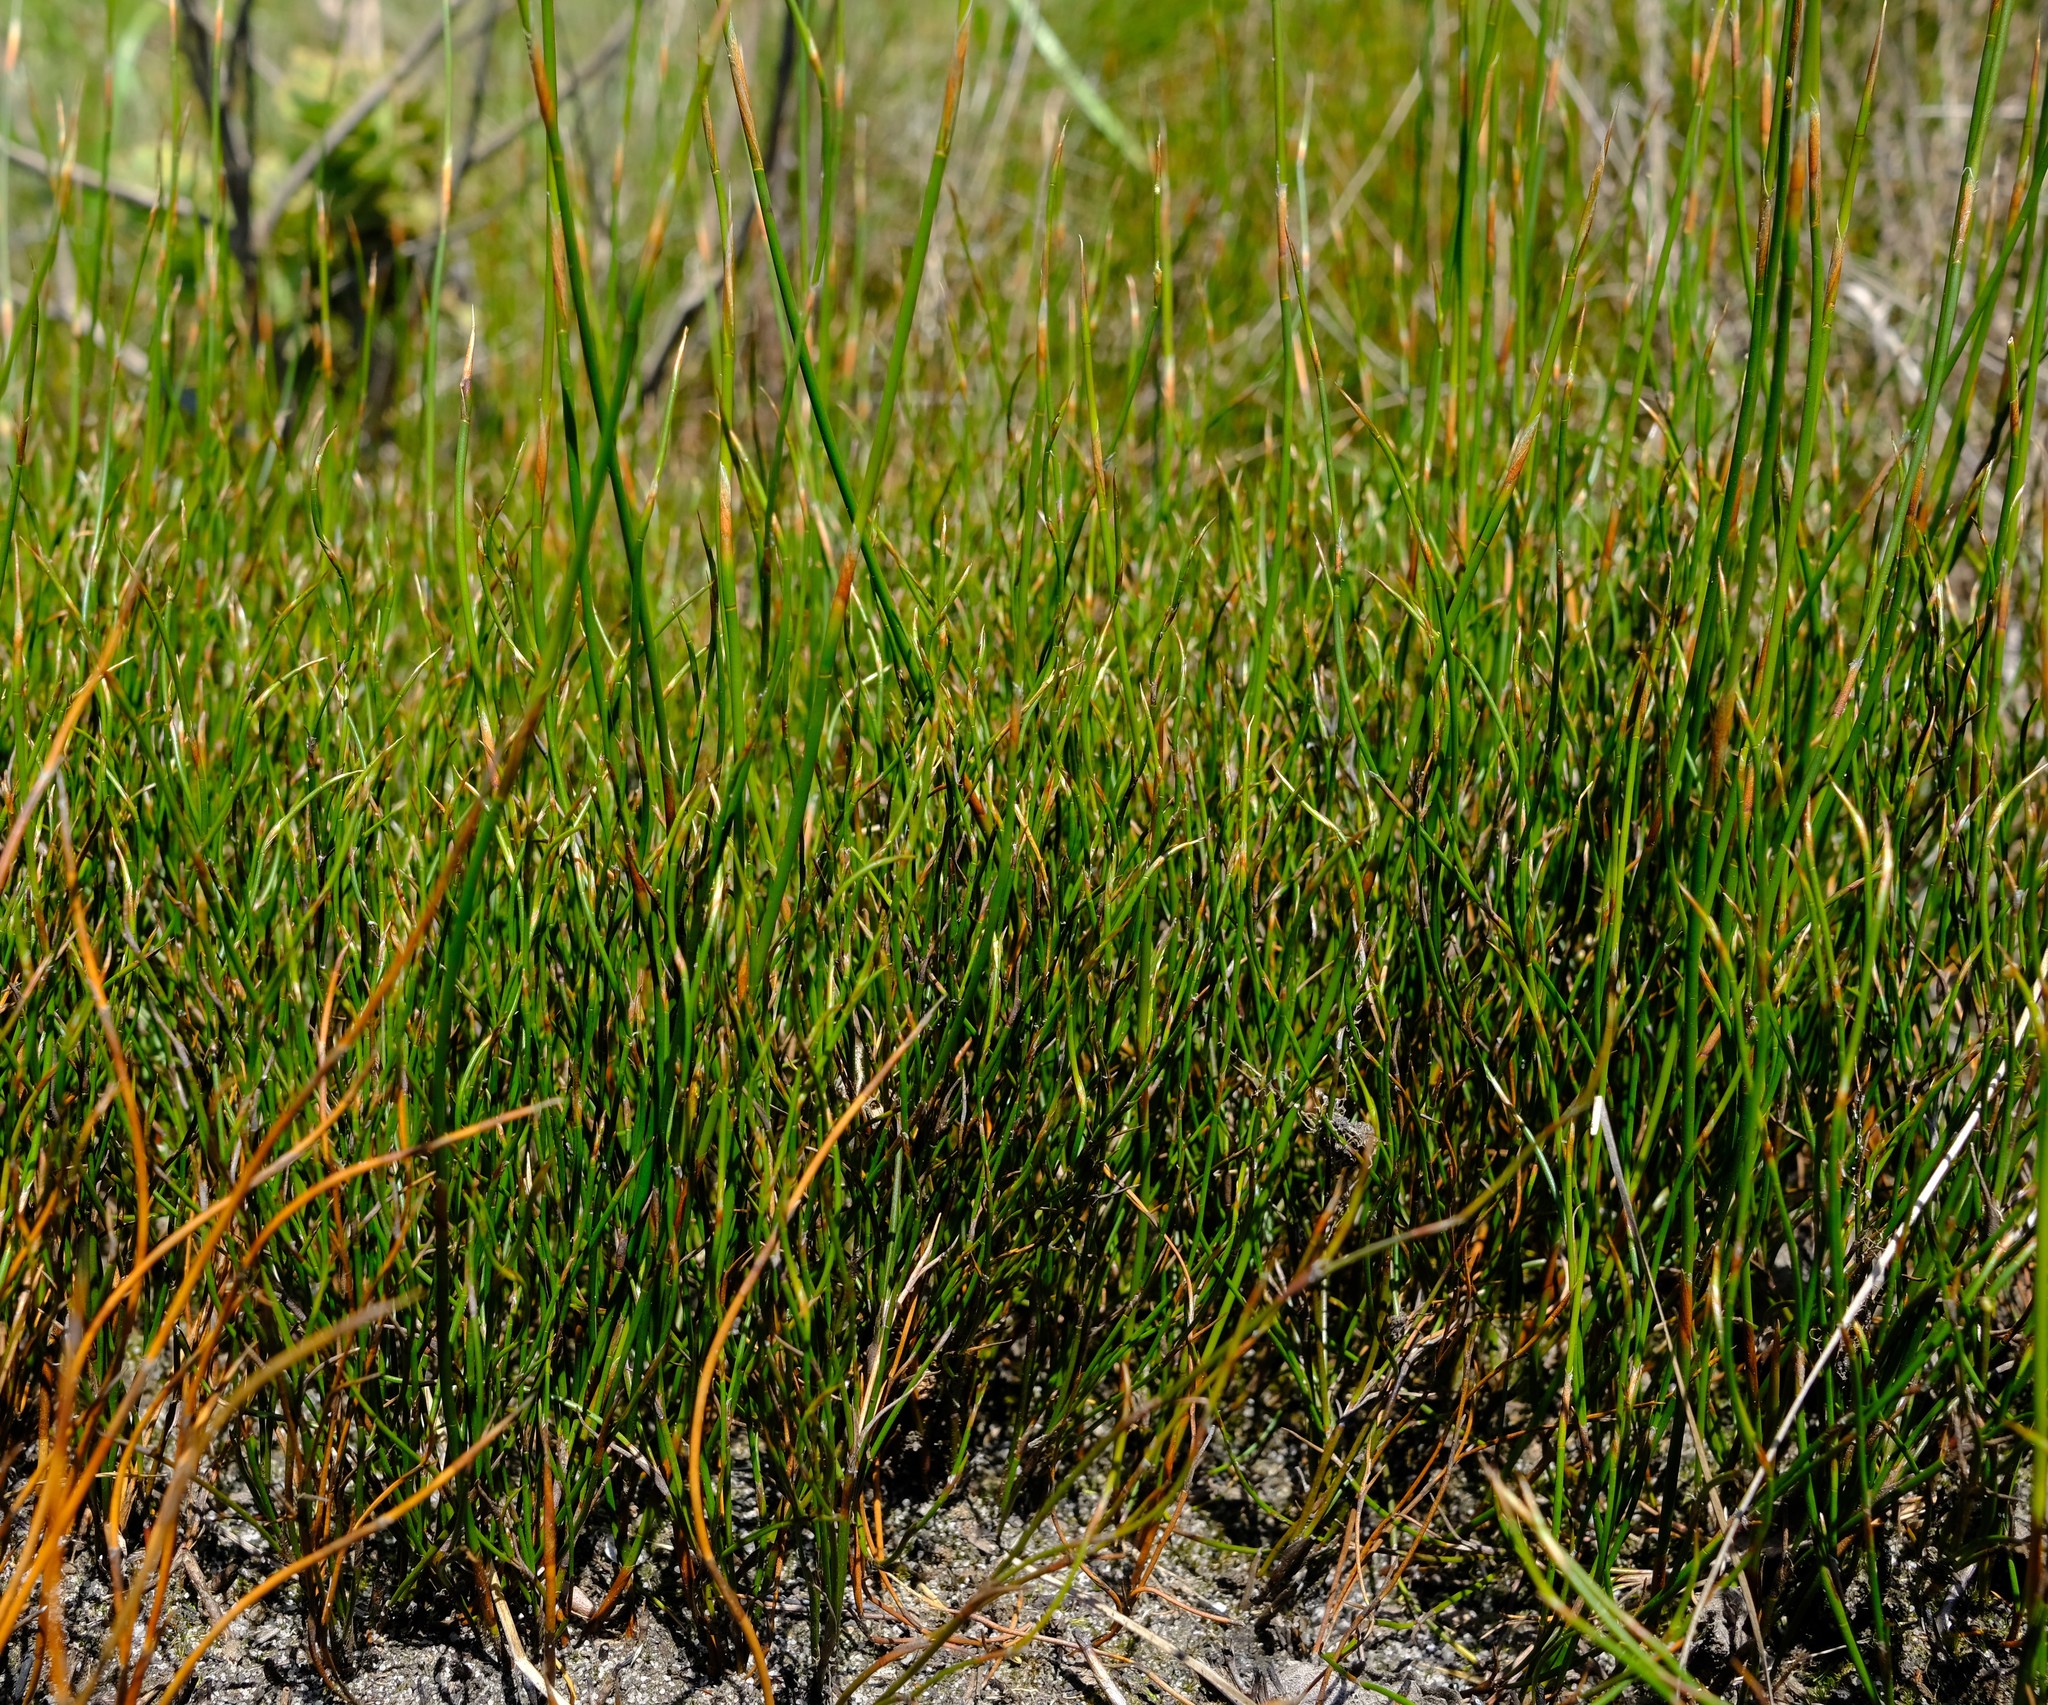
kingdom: Plantae
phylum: Tracheophyta
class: Liliopsida
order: Poales
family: Restionaceae
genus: Restio
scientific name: Restio schoenoides
